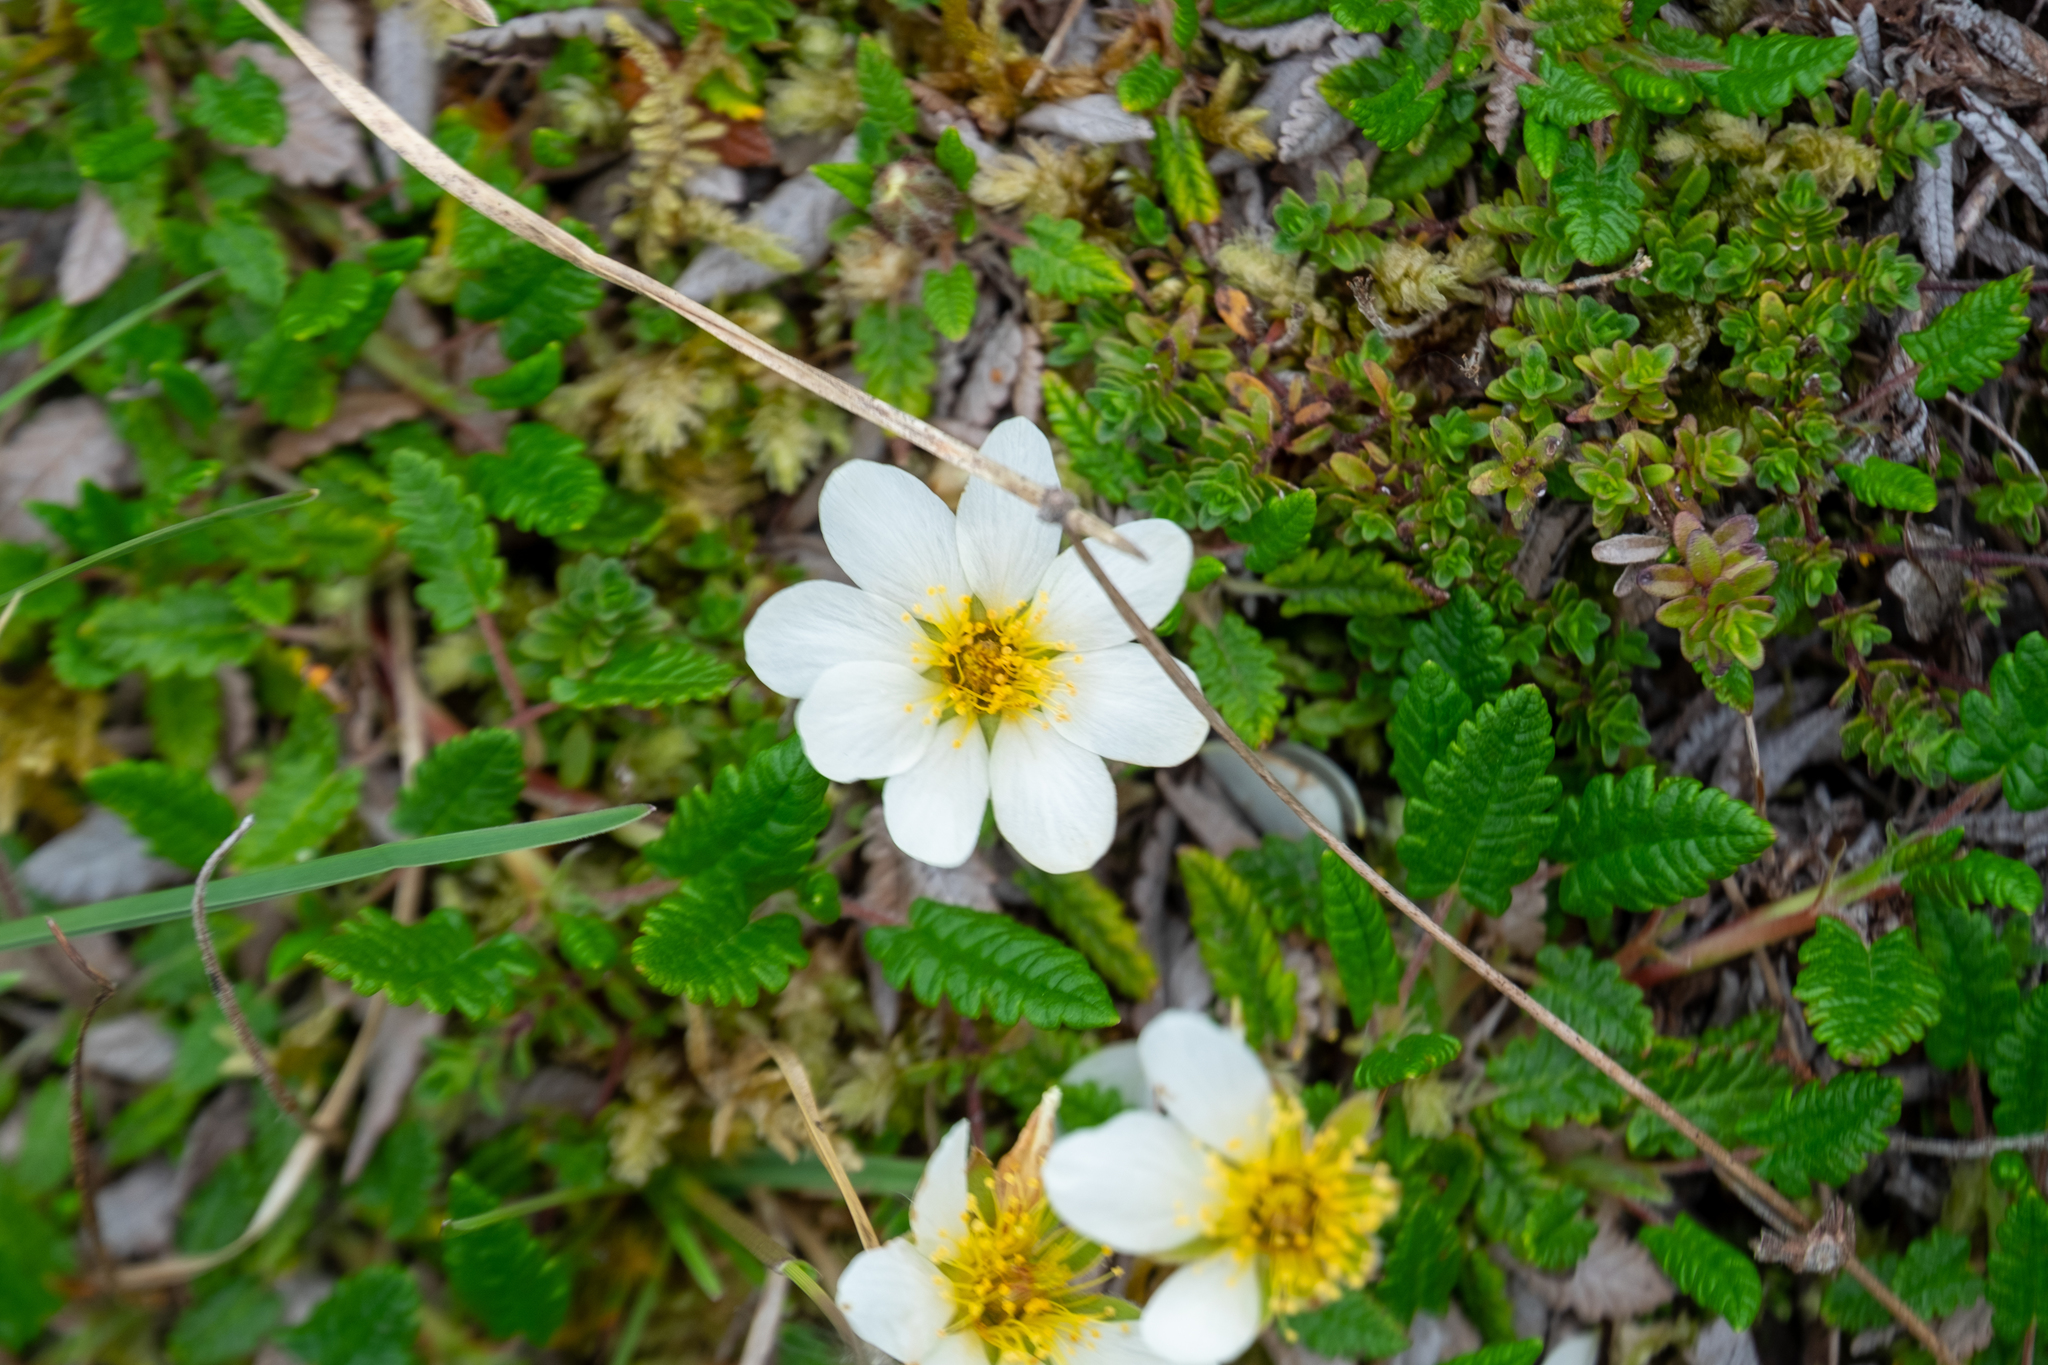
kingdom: Plantae
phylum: Tracheophyta
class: Magnoliopsida
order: Rosales
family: Rosaceae
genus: Dryas
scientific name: Dryas octopetala
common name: Eight-petal mountain-avens
